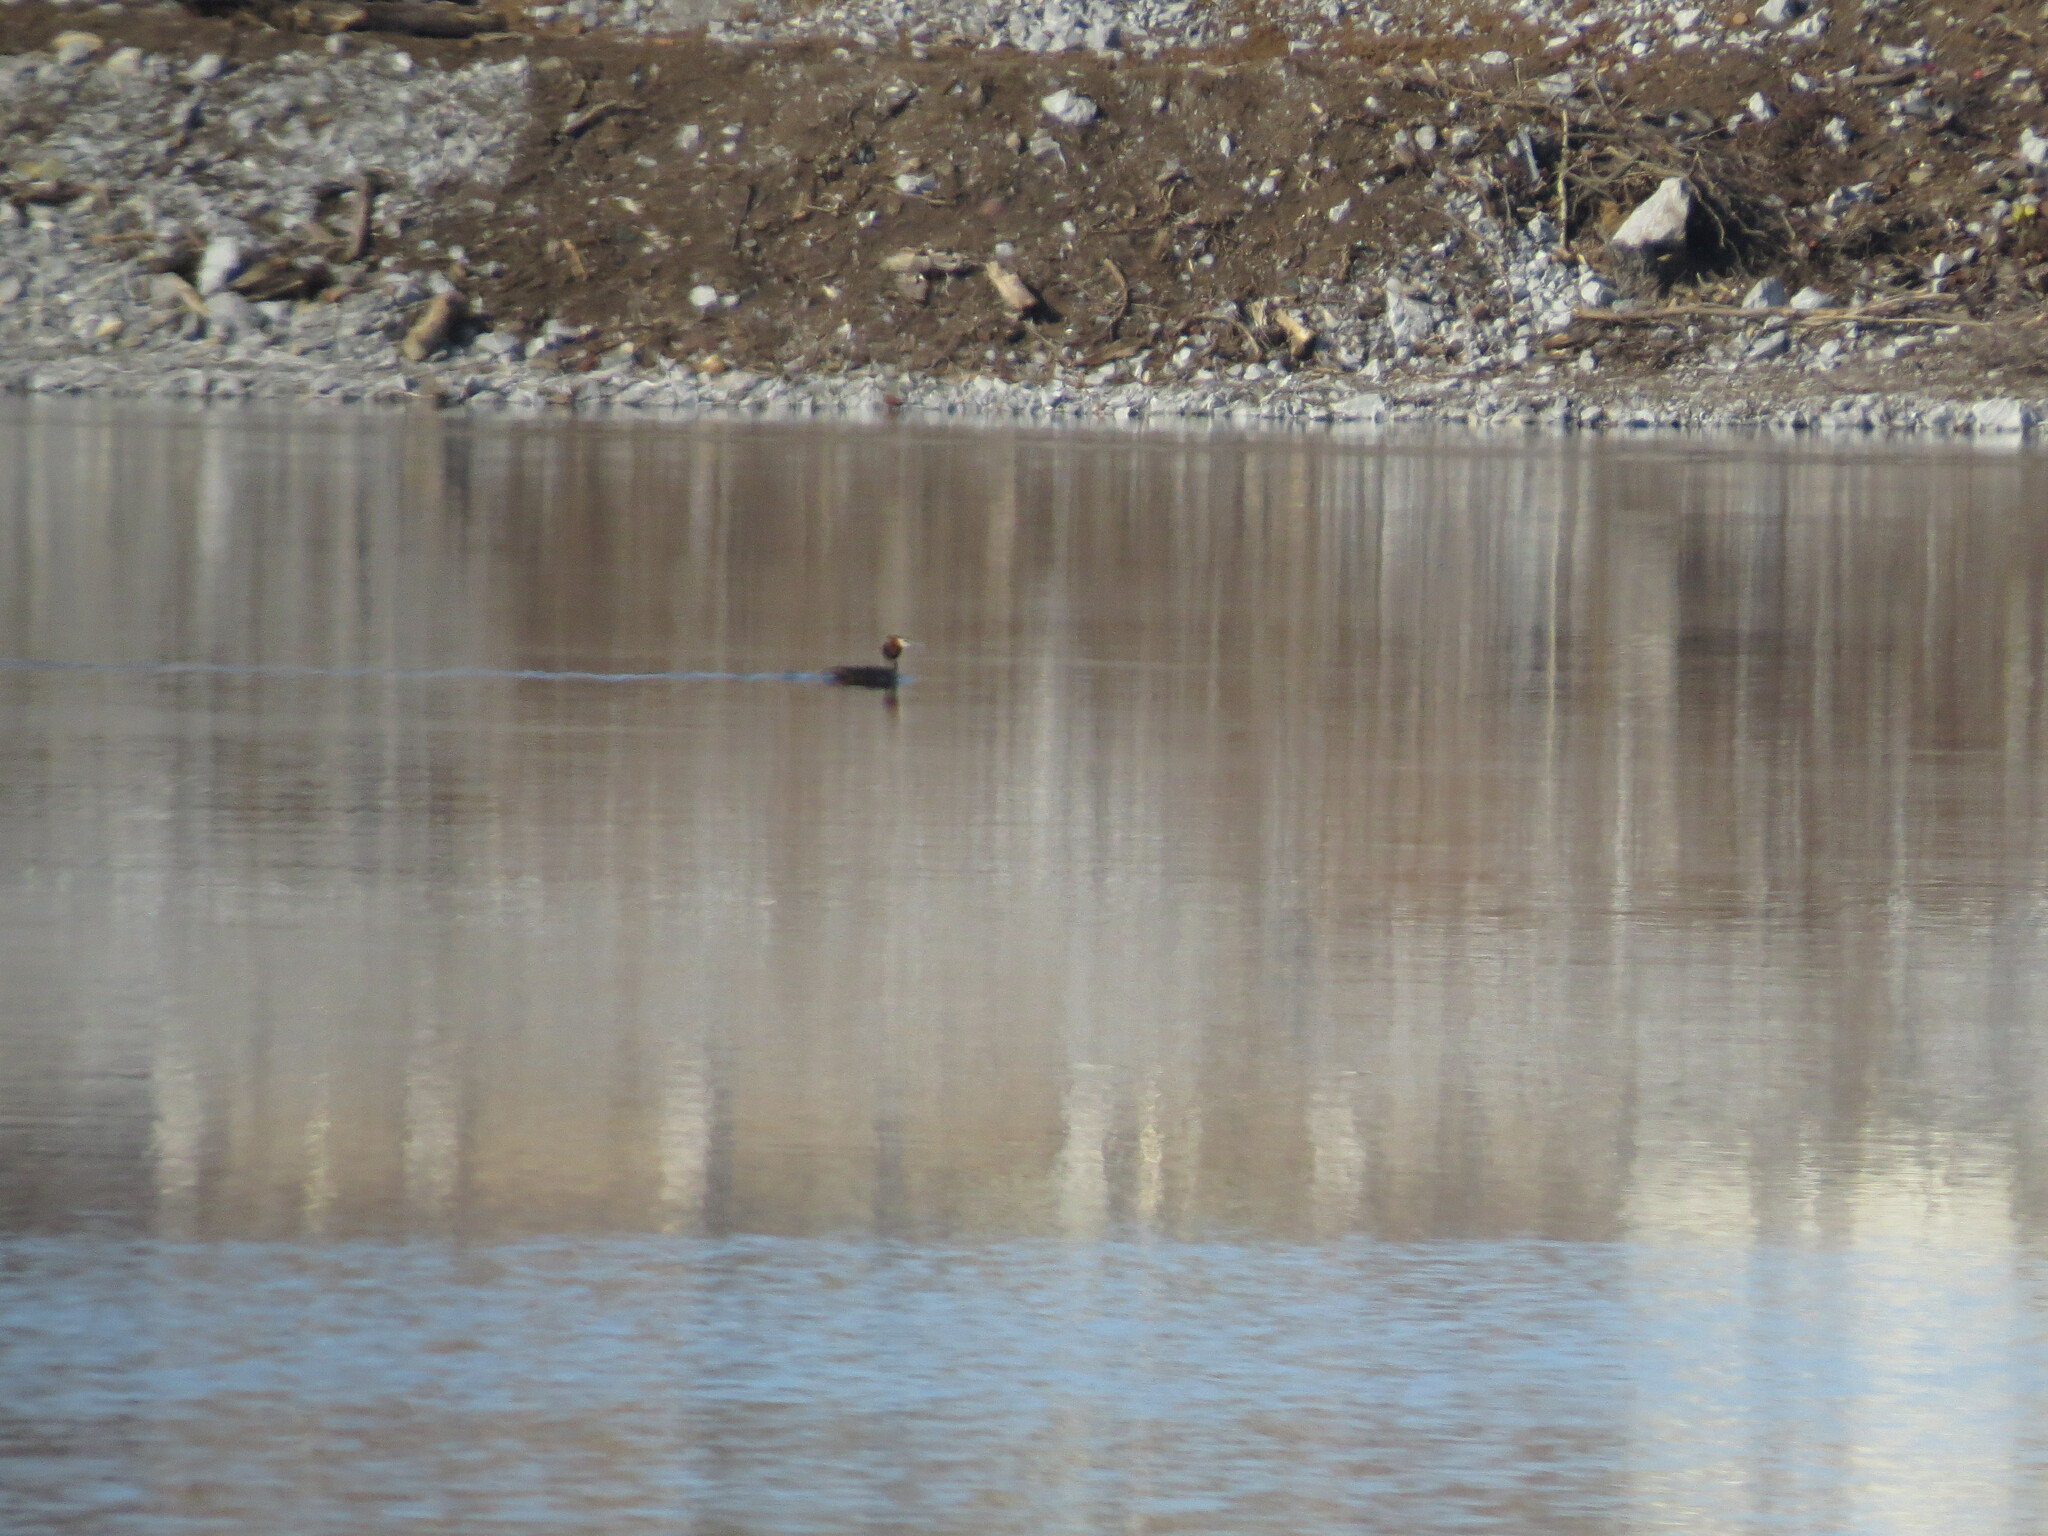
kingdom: Animalia
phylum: Chordata
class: Aves
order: Podicipediformes
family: Podicipedidae
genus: Podiceps
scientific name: Podiceps cristatus
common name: Great crested grebe
